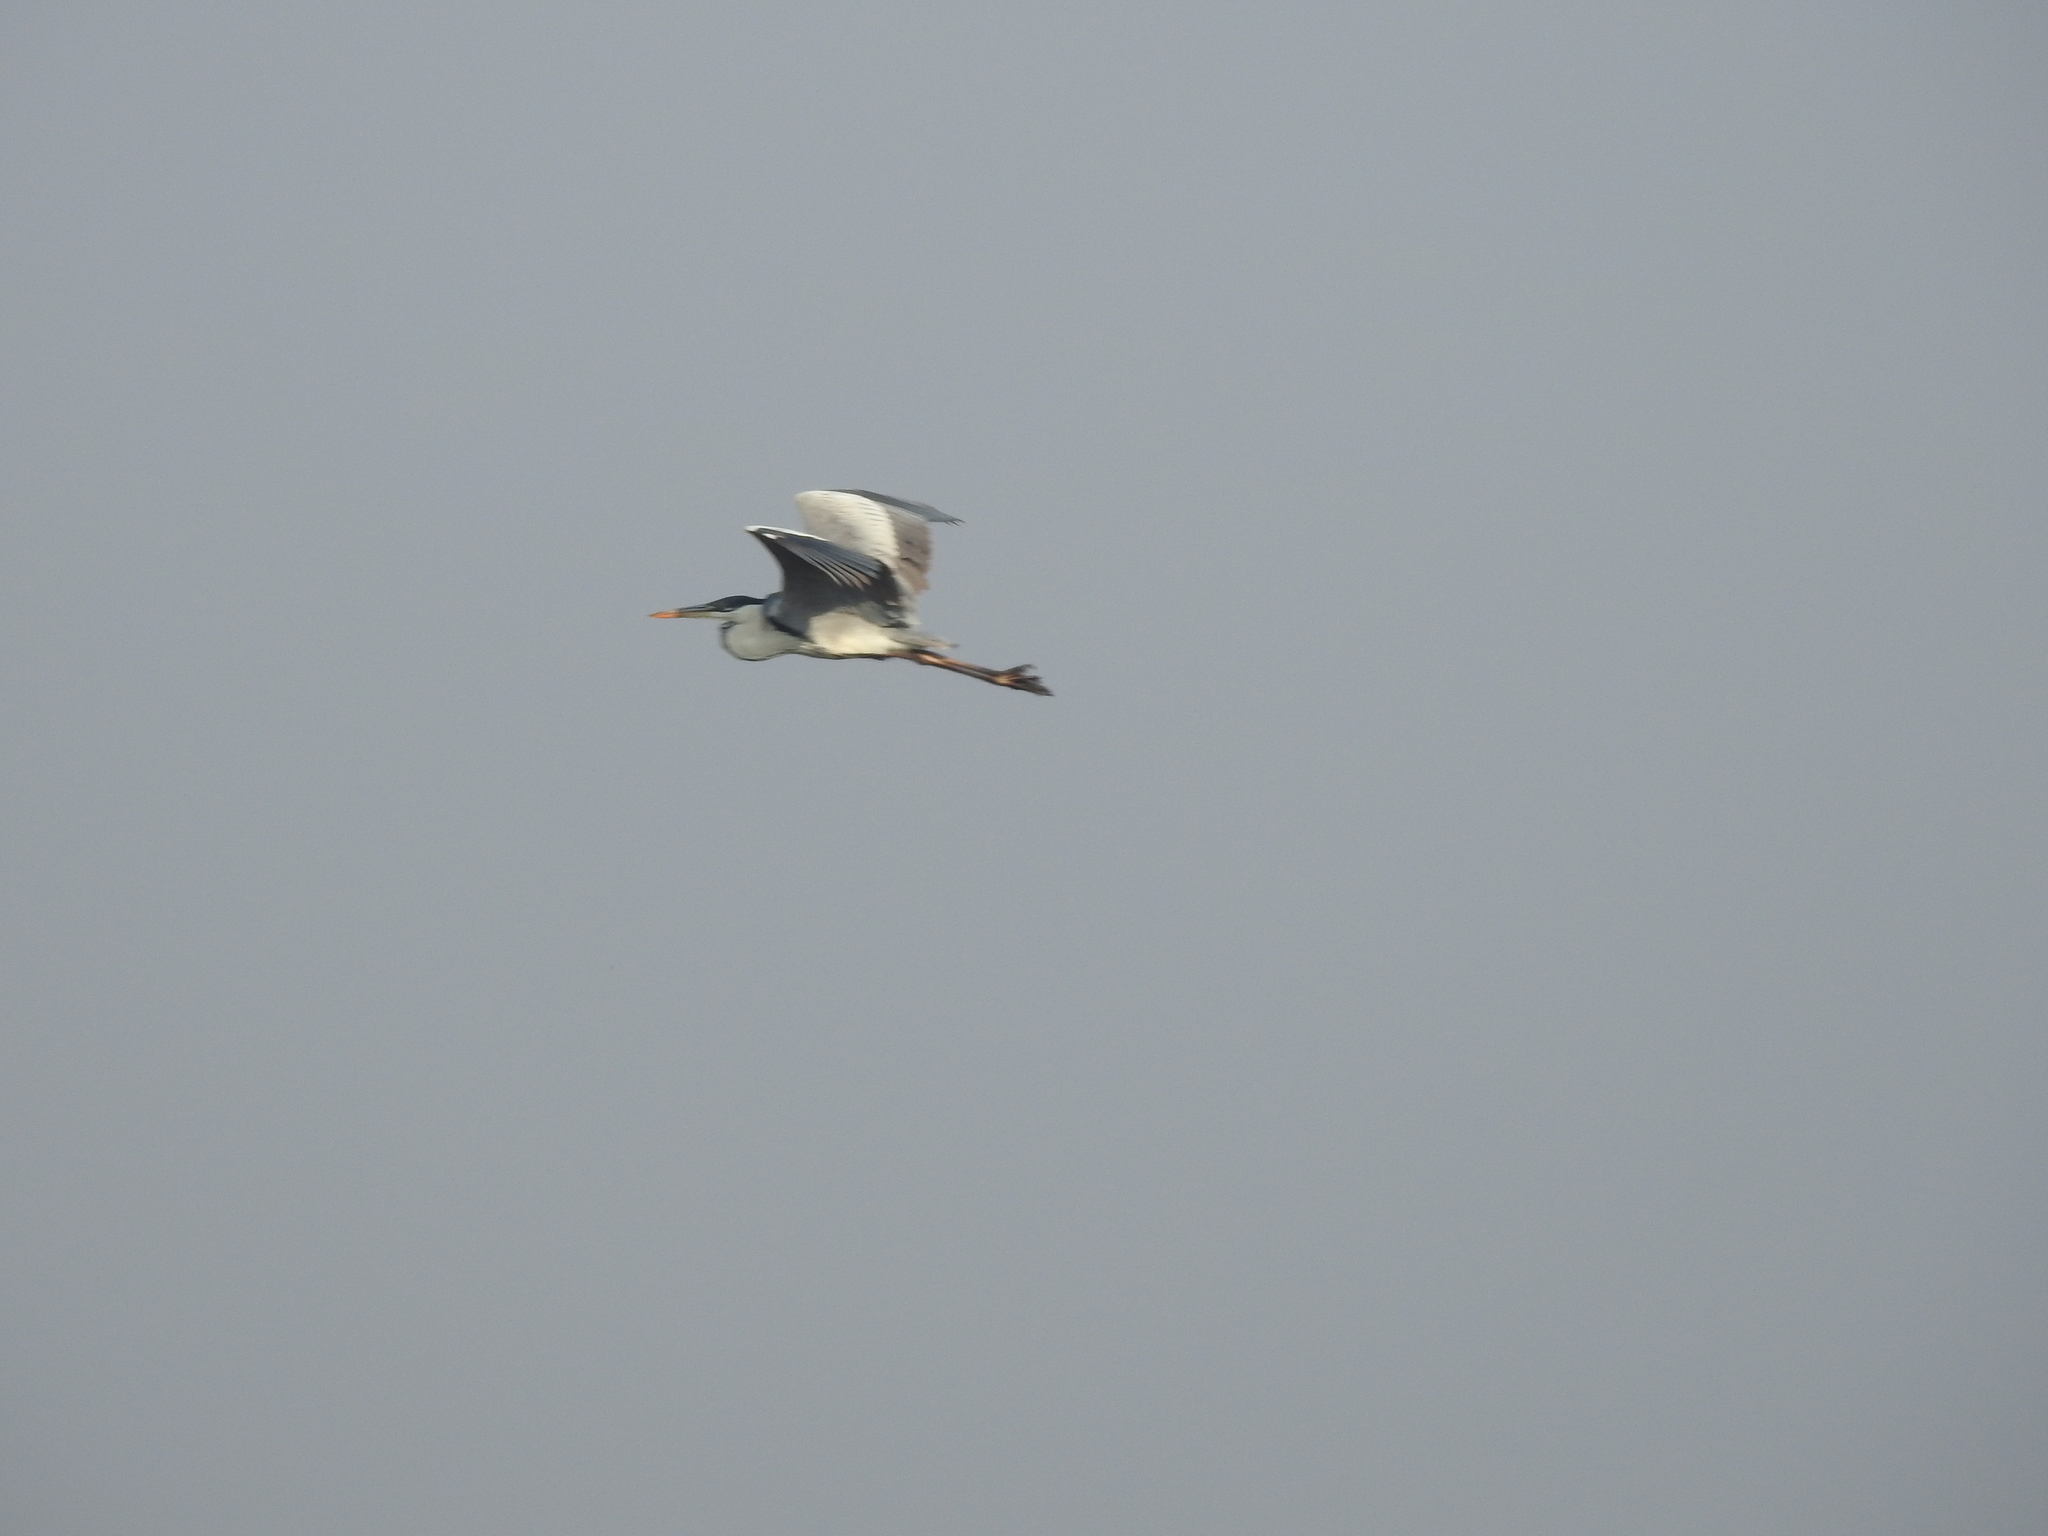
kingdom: Animalia
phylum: Chordata
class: Aves
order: Pelecaniformes
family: Ardeidae
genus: Ardea
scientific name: Ardea cocoi
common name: Cocoi heron
